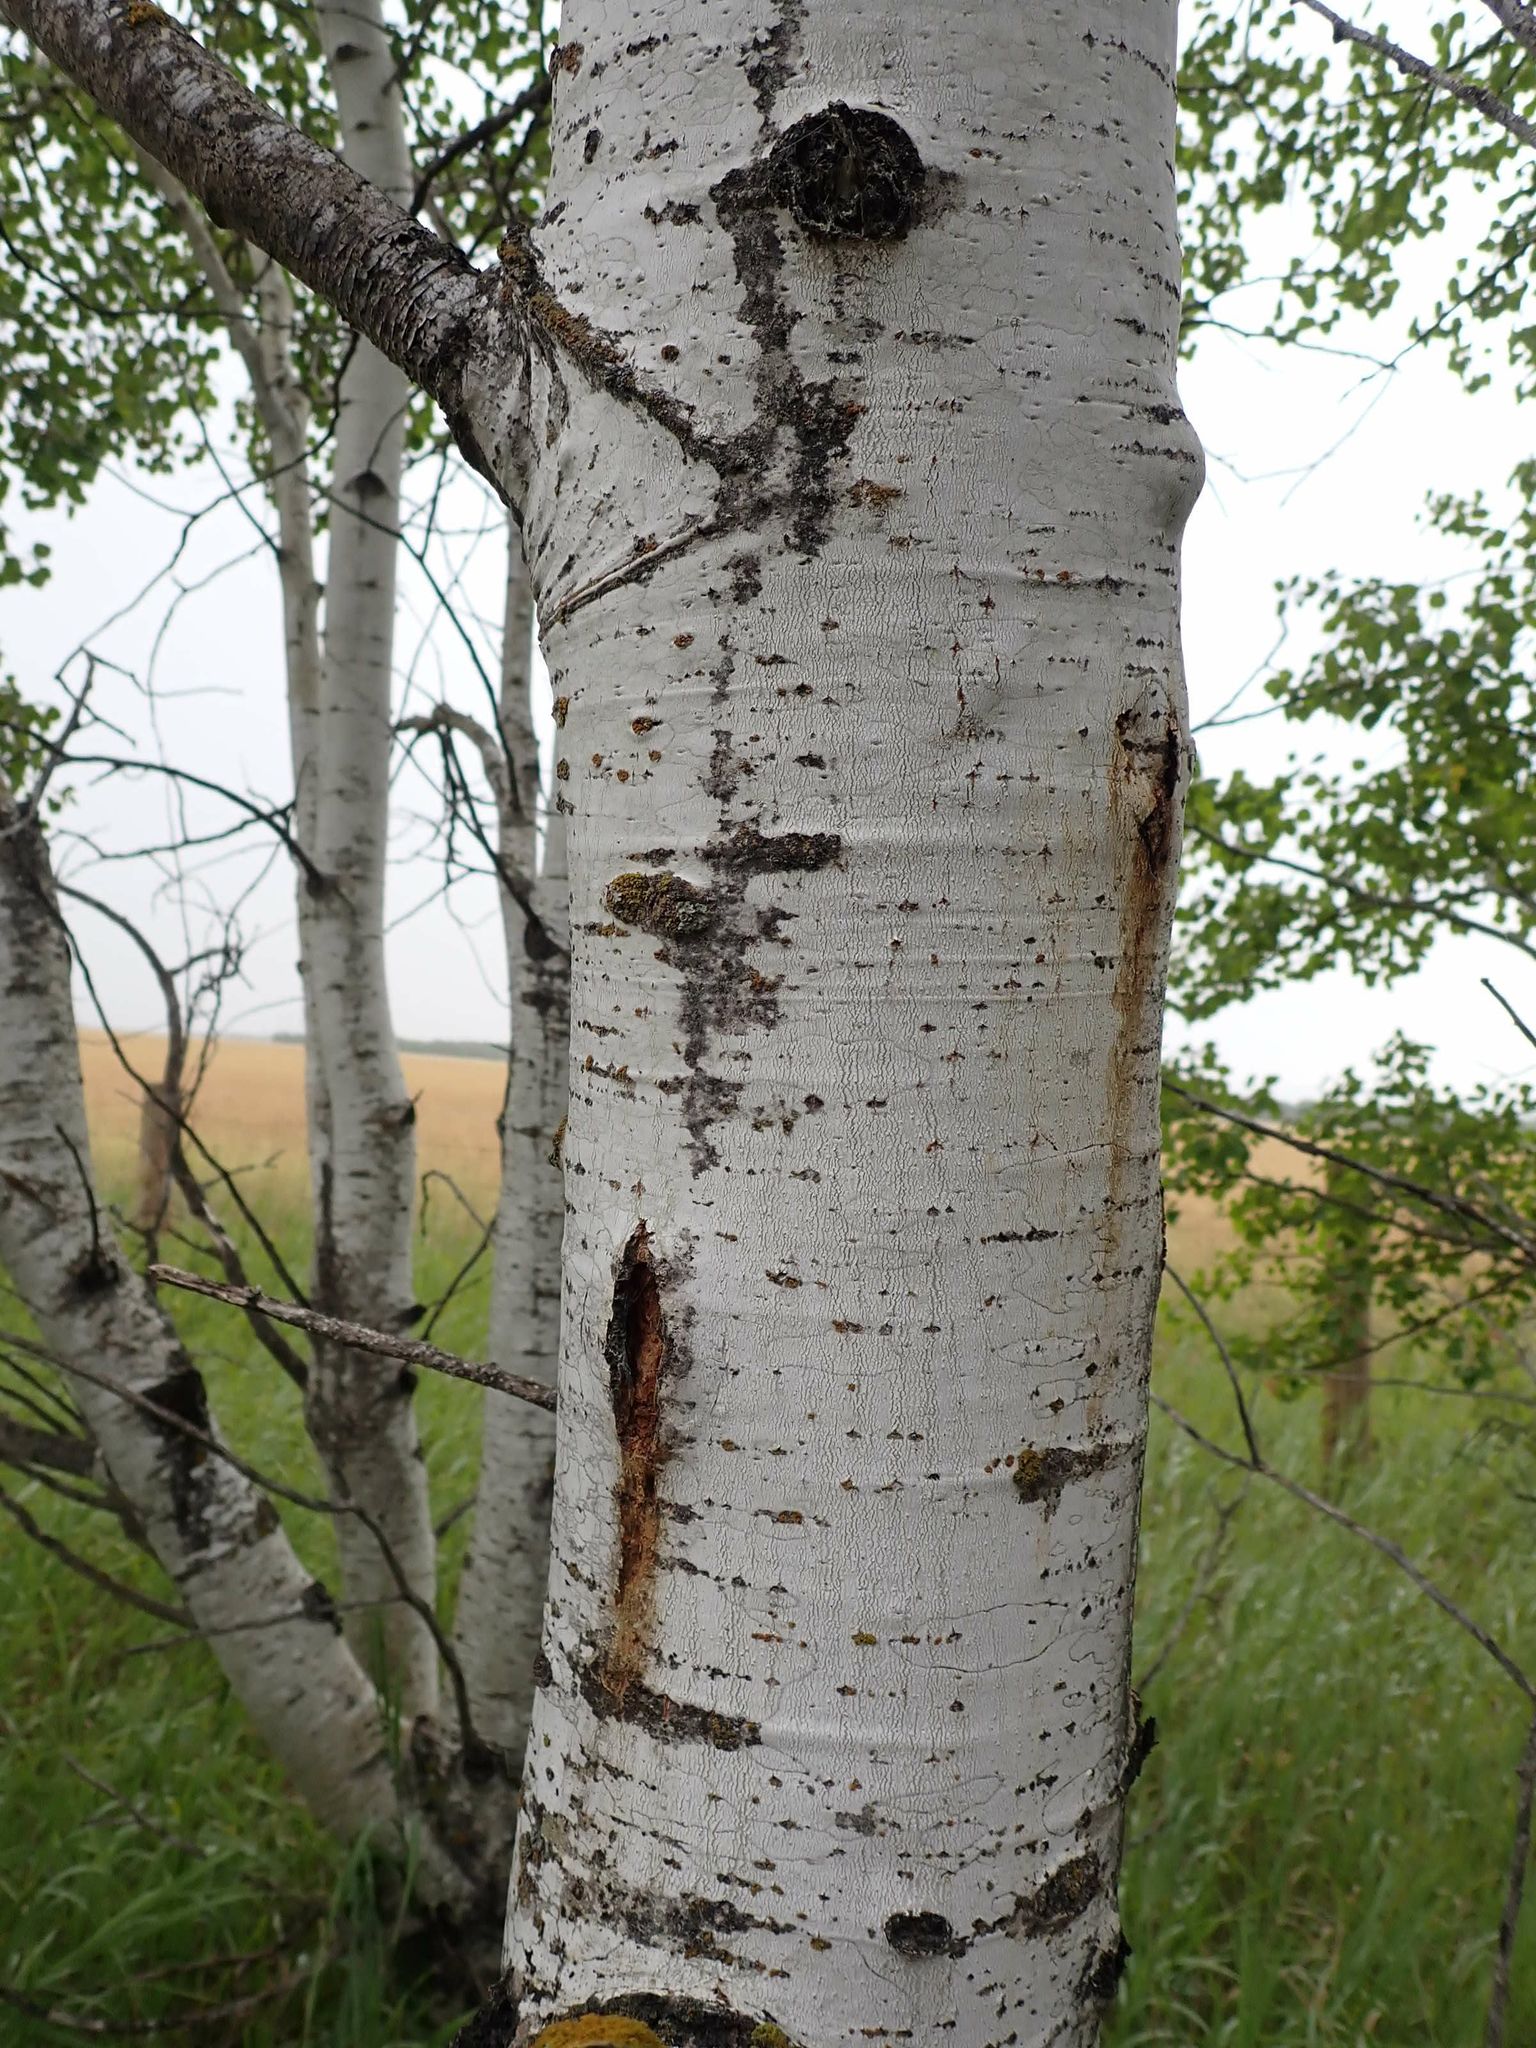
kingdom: Plantae
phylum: Tracheophyta
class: Magnoliopsida
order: Malpighiales
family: Salicaceae
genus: Populus
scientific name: Populus tremuloides
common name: Quaking aspen
